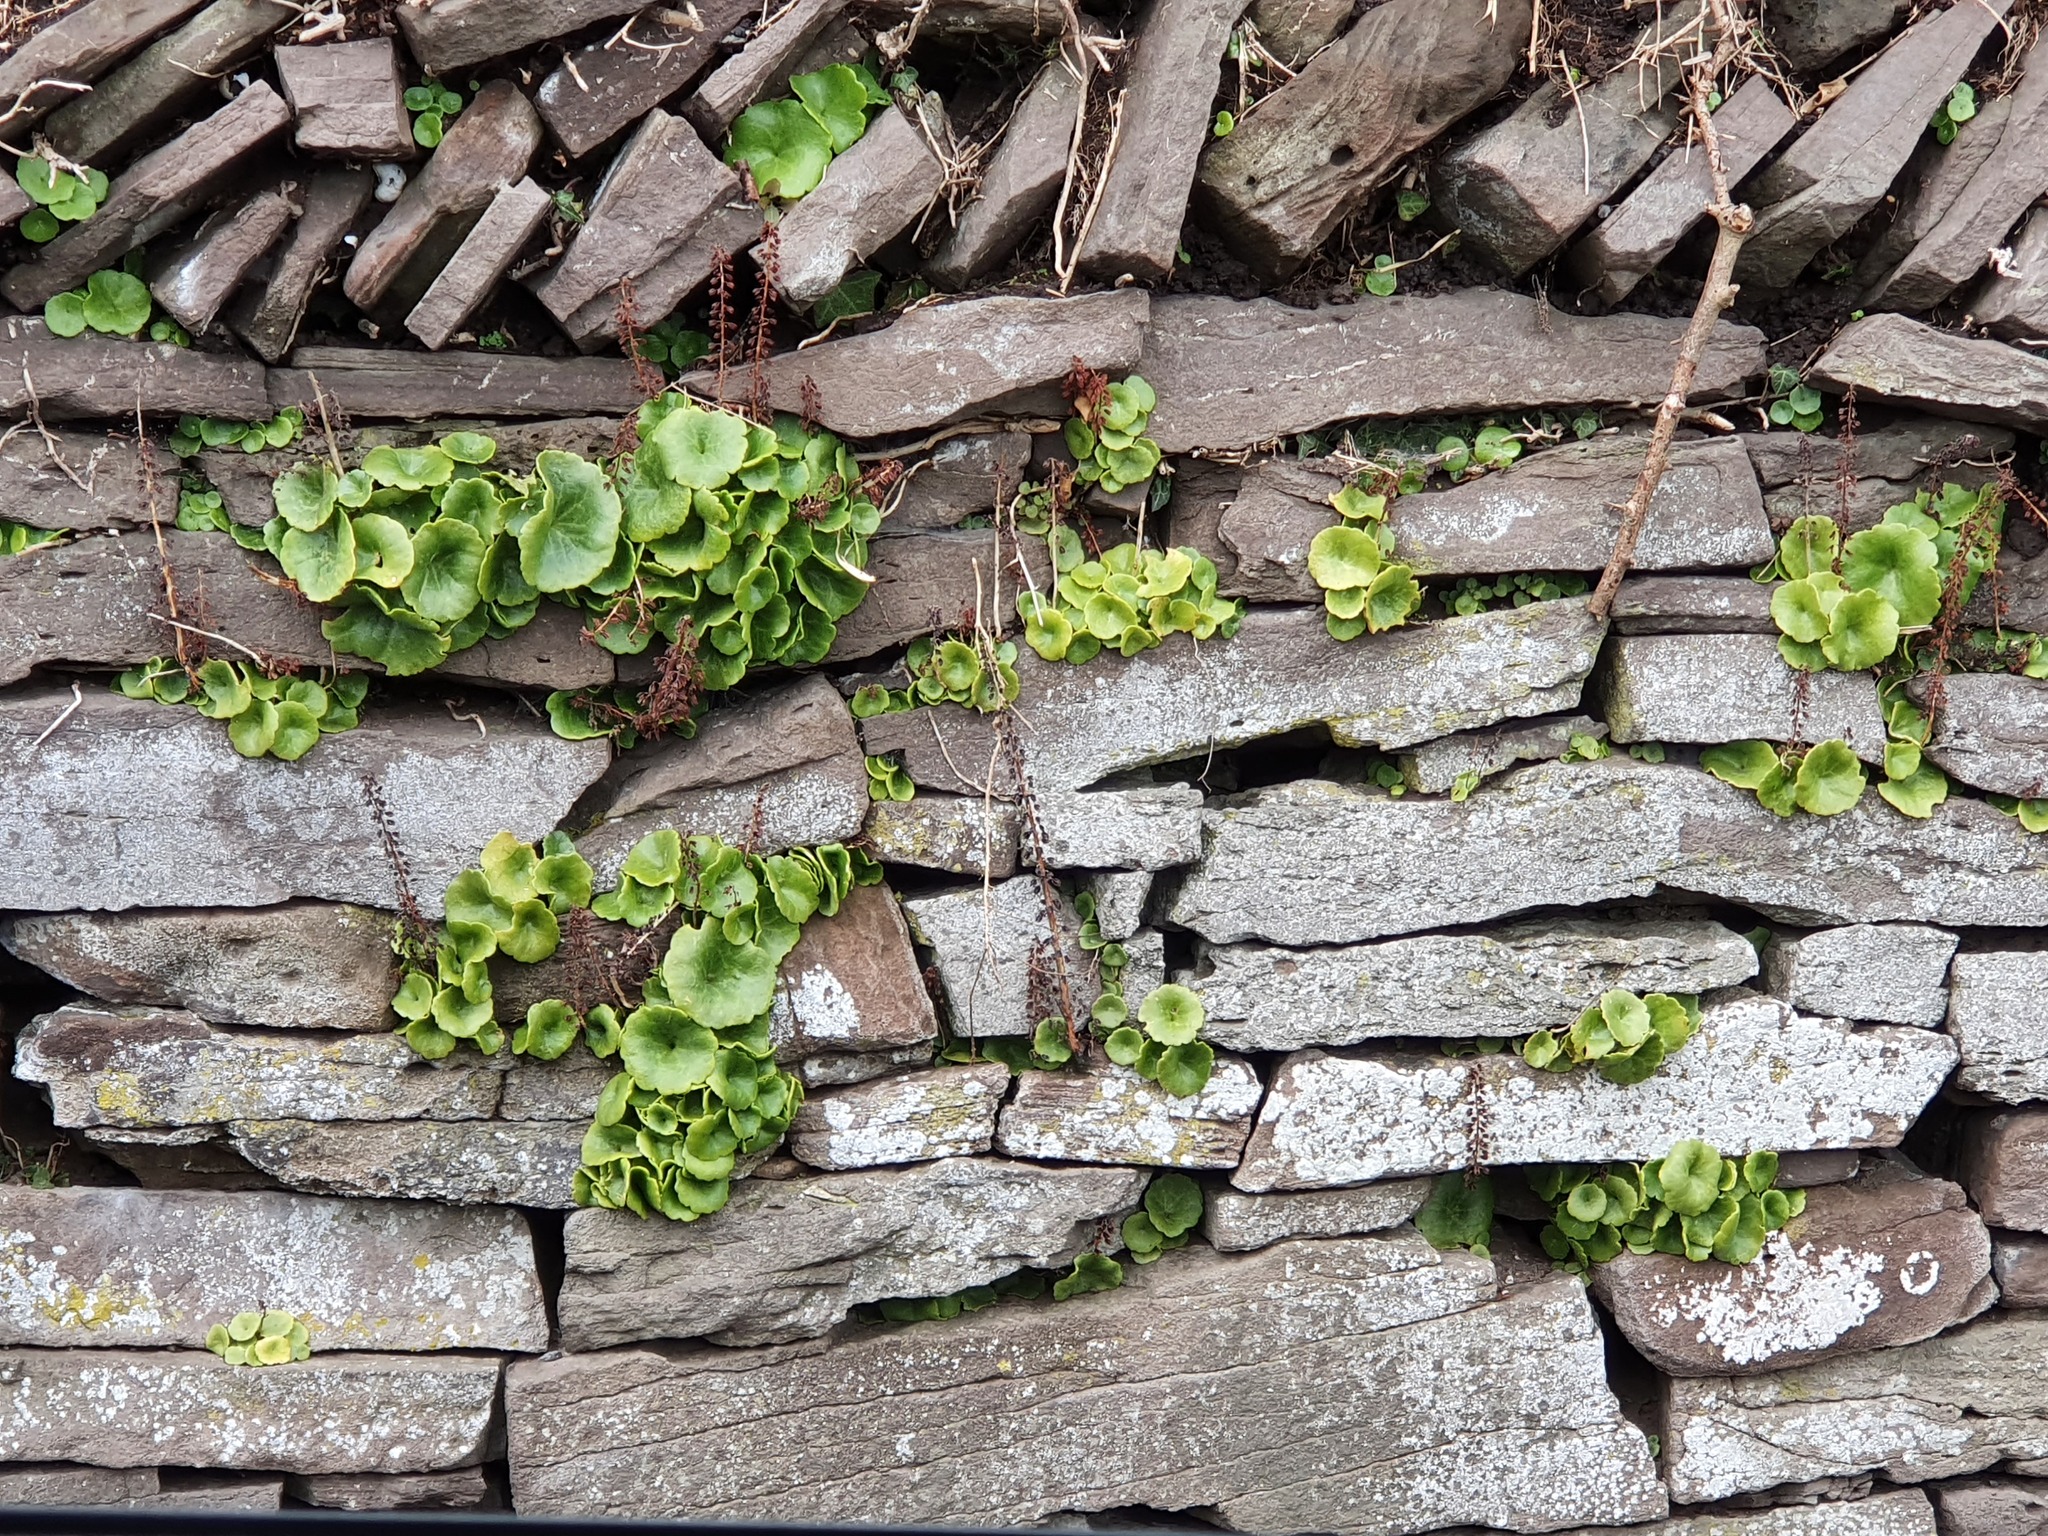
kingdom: Plantae
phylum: Tracheophyta
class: Magnoliopsida
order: Saxifragales
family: Crassulaceae
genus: Umbilicus
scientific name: Umbilicus rupestris
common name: Navelwort
